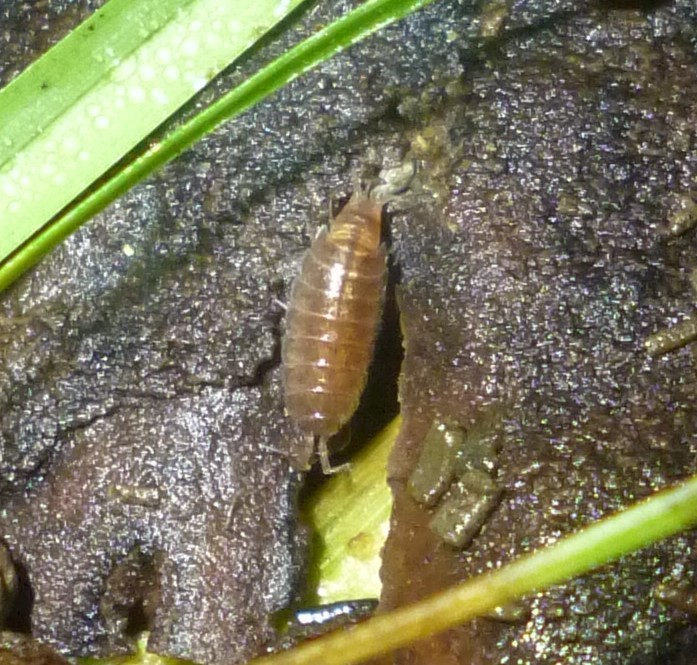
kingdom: Animalia
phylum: Arthropoda
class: Malacostraca
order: Isopoda
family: Trichoniscidae
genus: Hyloniscus
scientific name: Hyloniscus riparius
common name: Isopod
